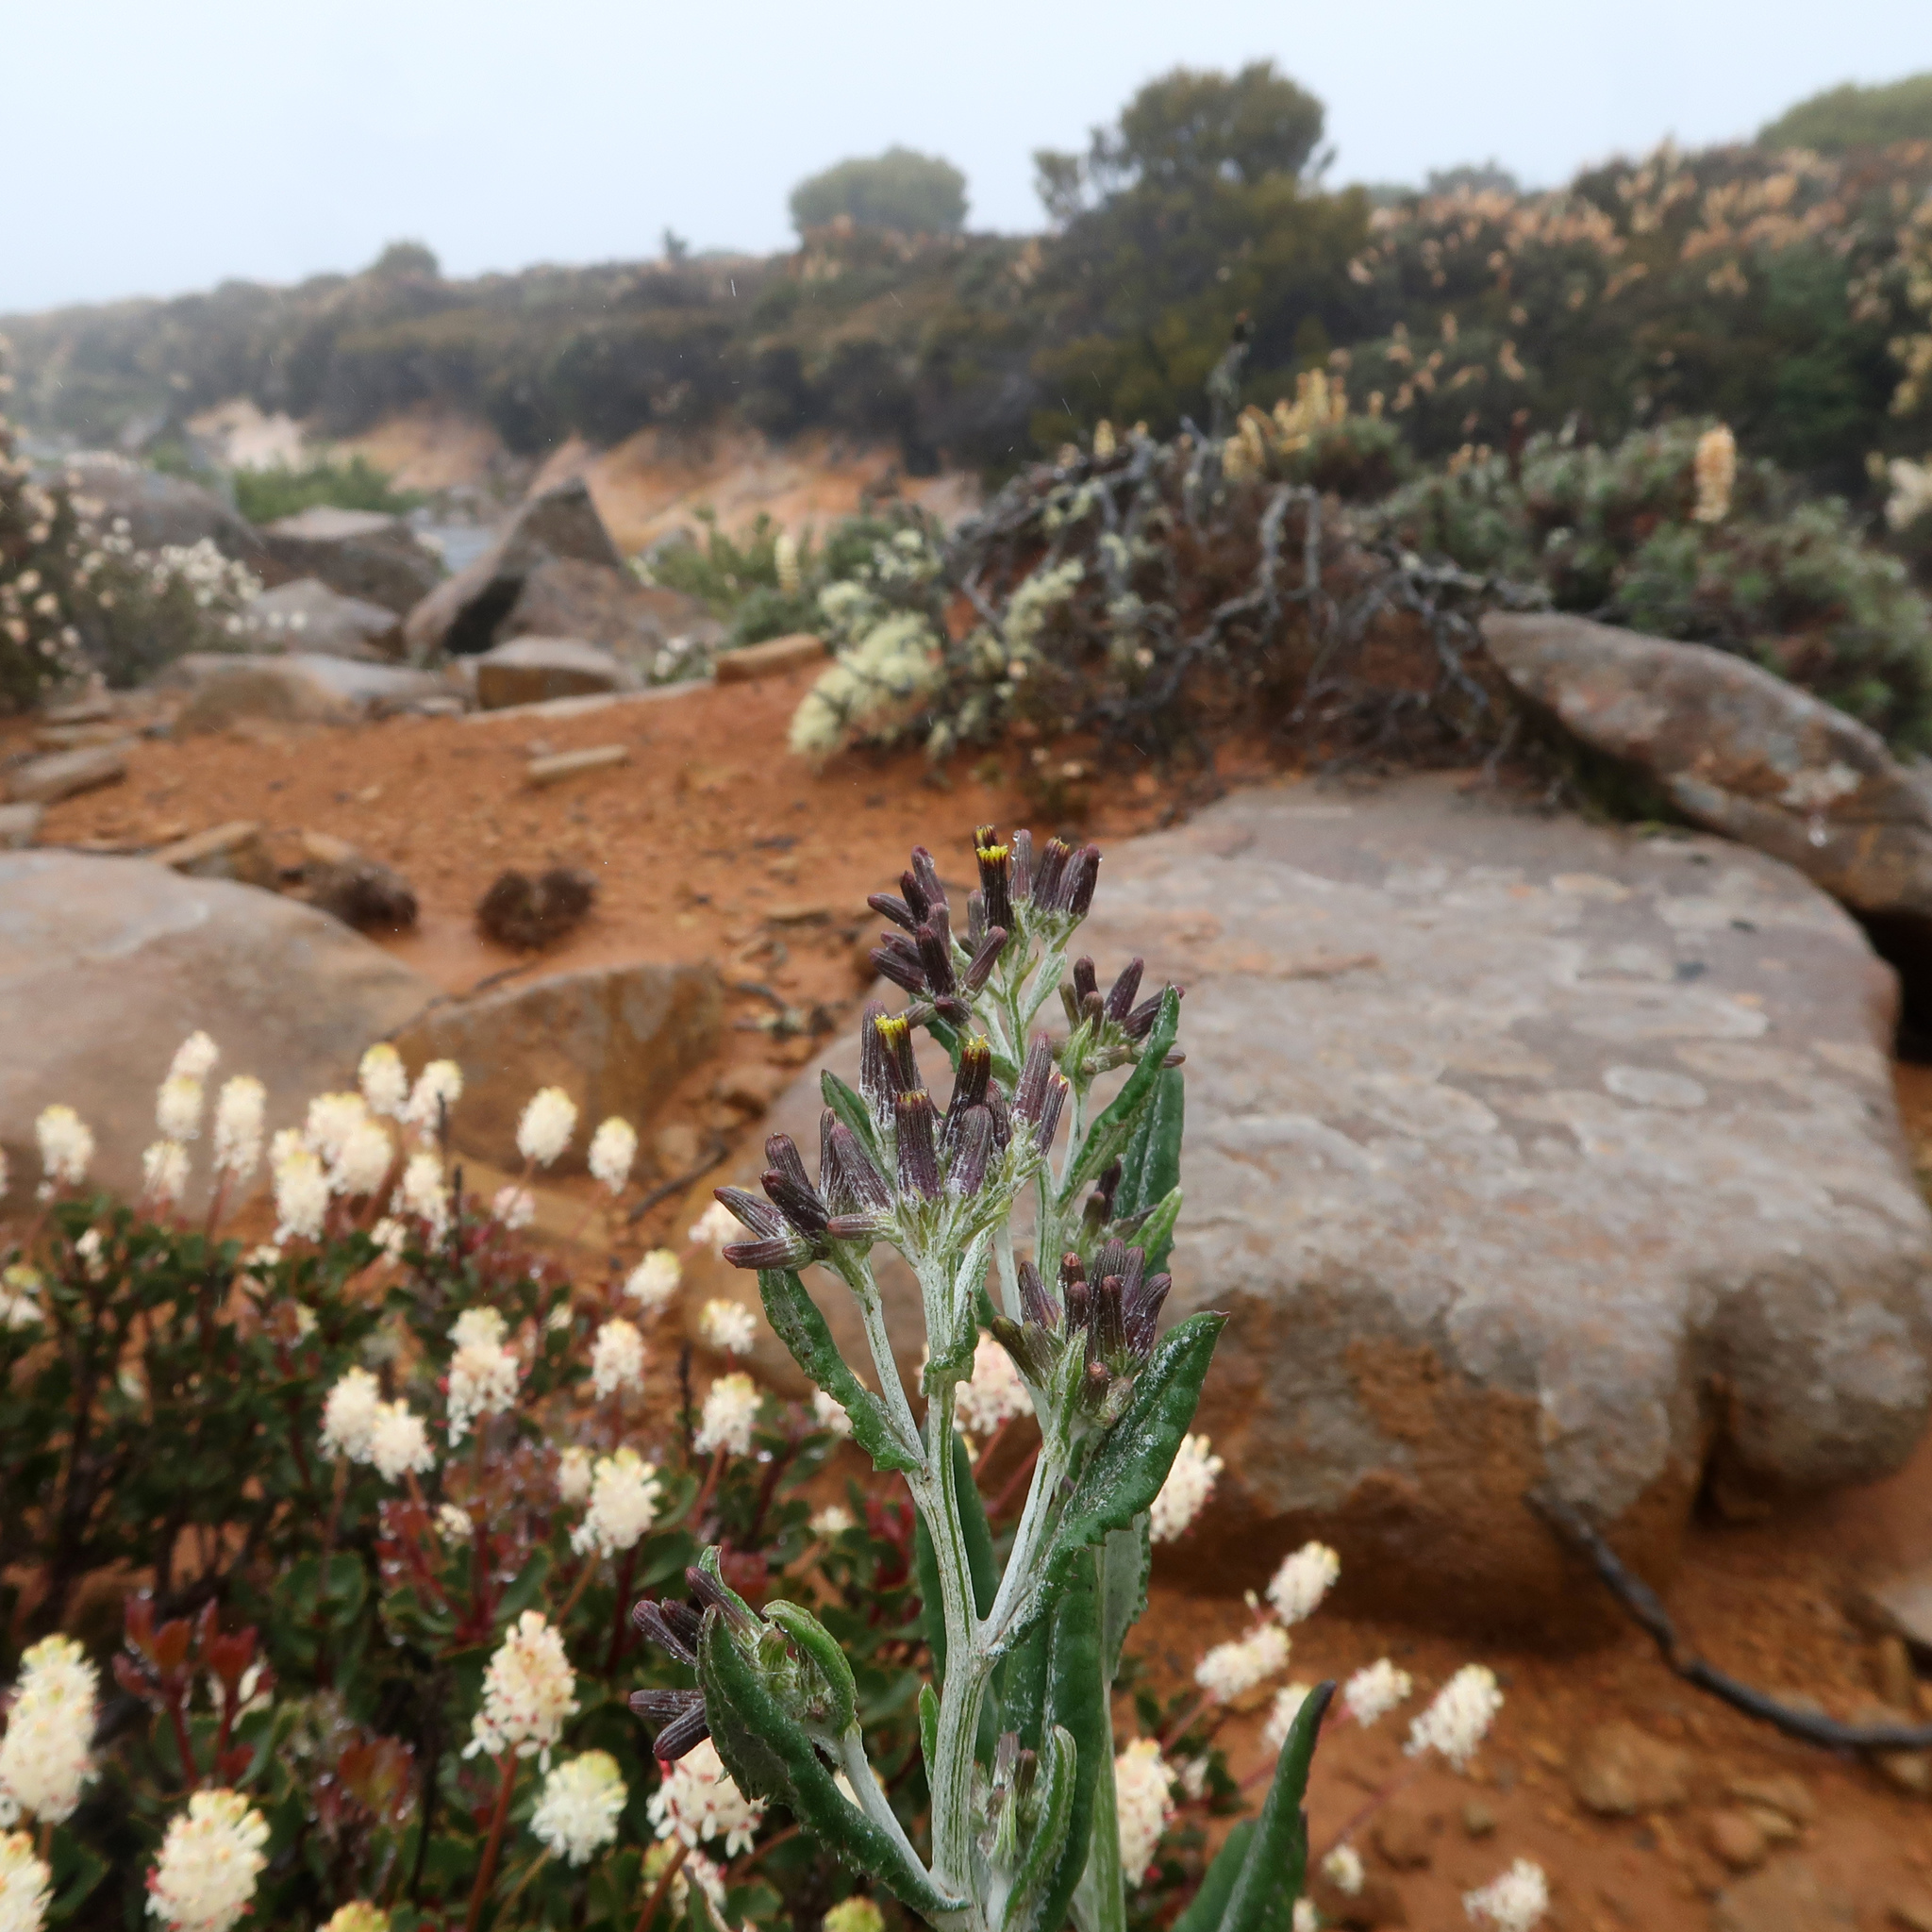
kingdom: Plantae
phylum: Tracheophyta
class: Magnoliopsida
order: Asterales
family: Asteraceae
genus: Senecio
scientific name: Senecio gunnii
